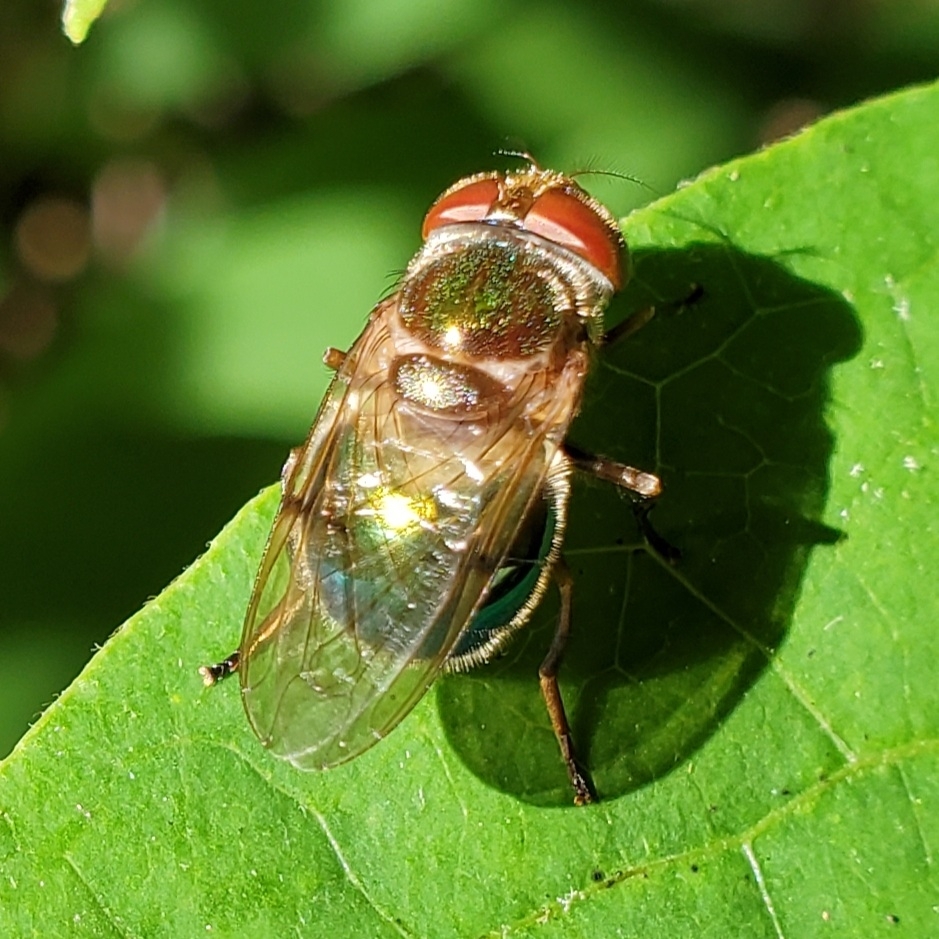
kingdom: Animalia
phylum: Arthropoda
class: Insecta
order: Diptera
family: Syrphidae
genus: Copestylum
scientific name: Copestylum vesicularium
